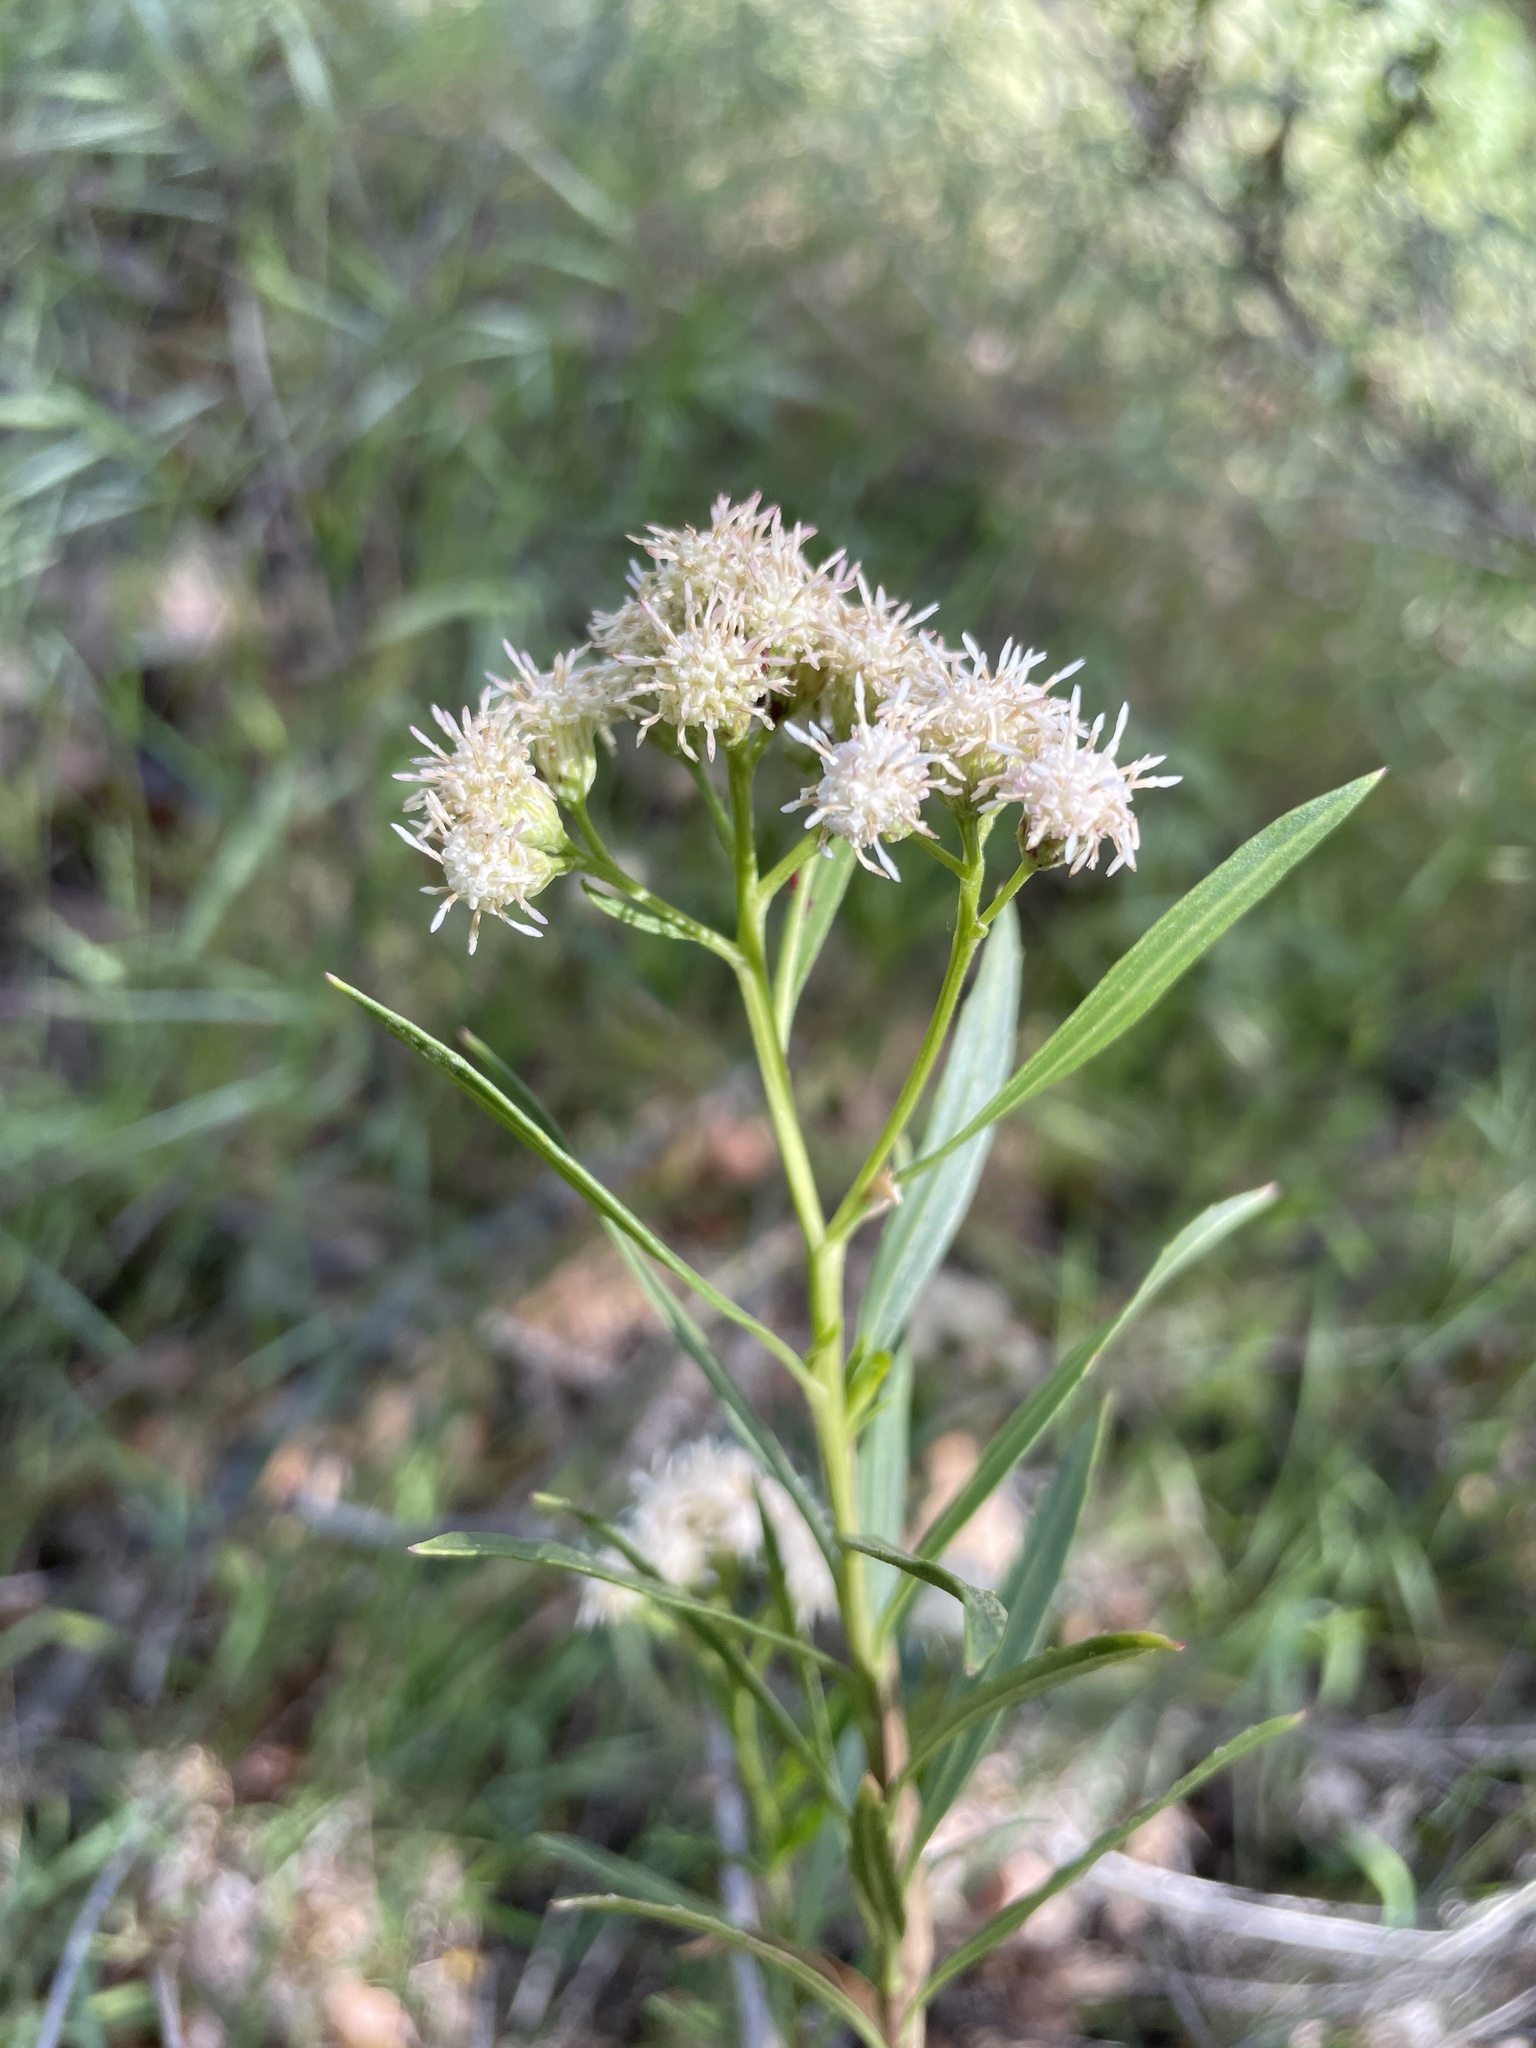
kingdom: Plantae
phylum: Tracheophyta
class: Magnoliopsida
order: Asterales
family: Asteraceae
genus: Baccharis
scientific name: Baccharis salicifolia
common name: Sticky baccharis
